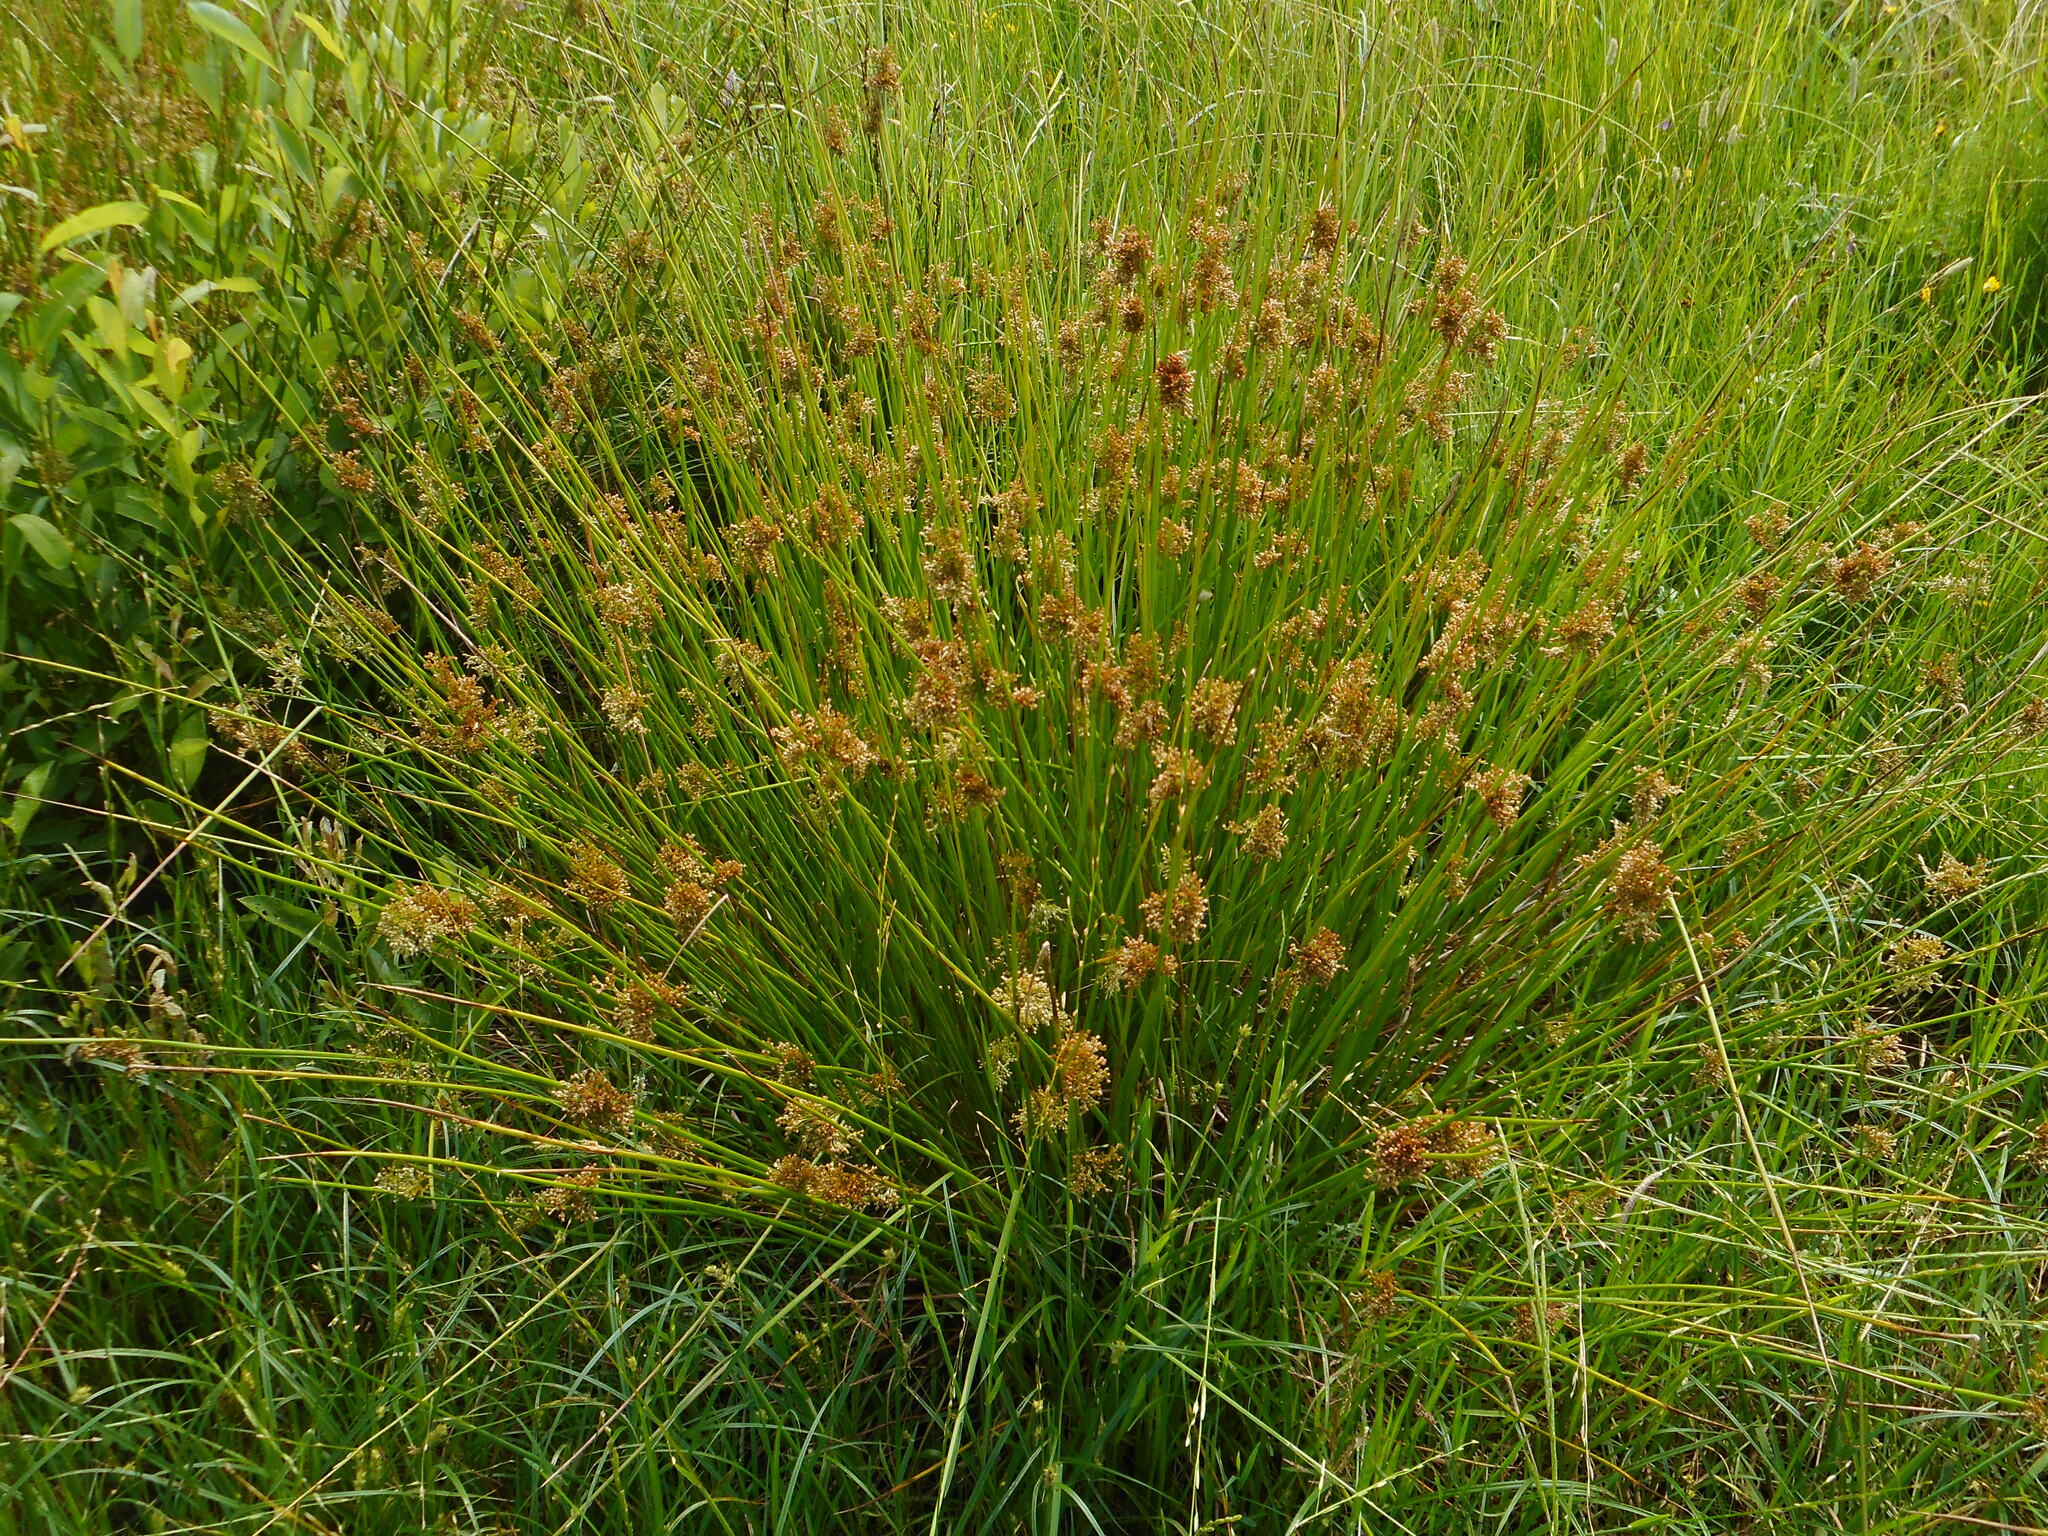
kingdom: Plantae
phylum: Tracheophyta
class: Liliopsida
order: Poales
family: Juncaceae
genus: Juncus
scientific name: Juncus effusus
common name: Soft rush
